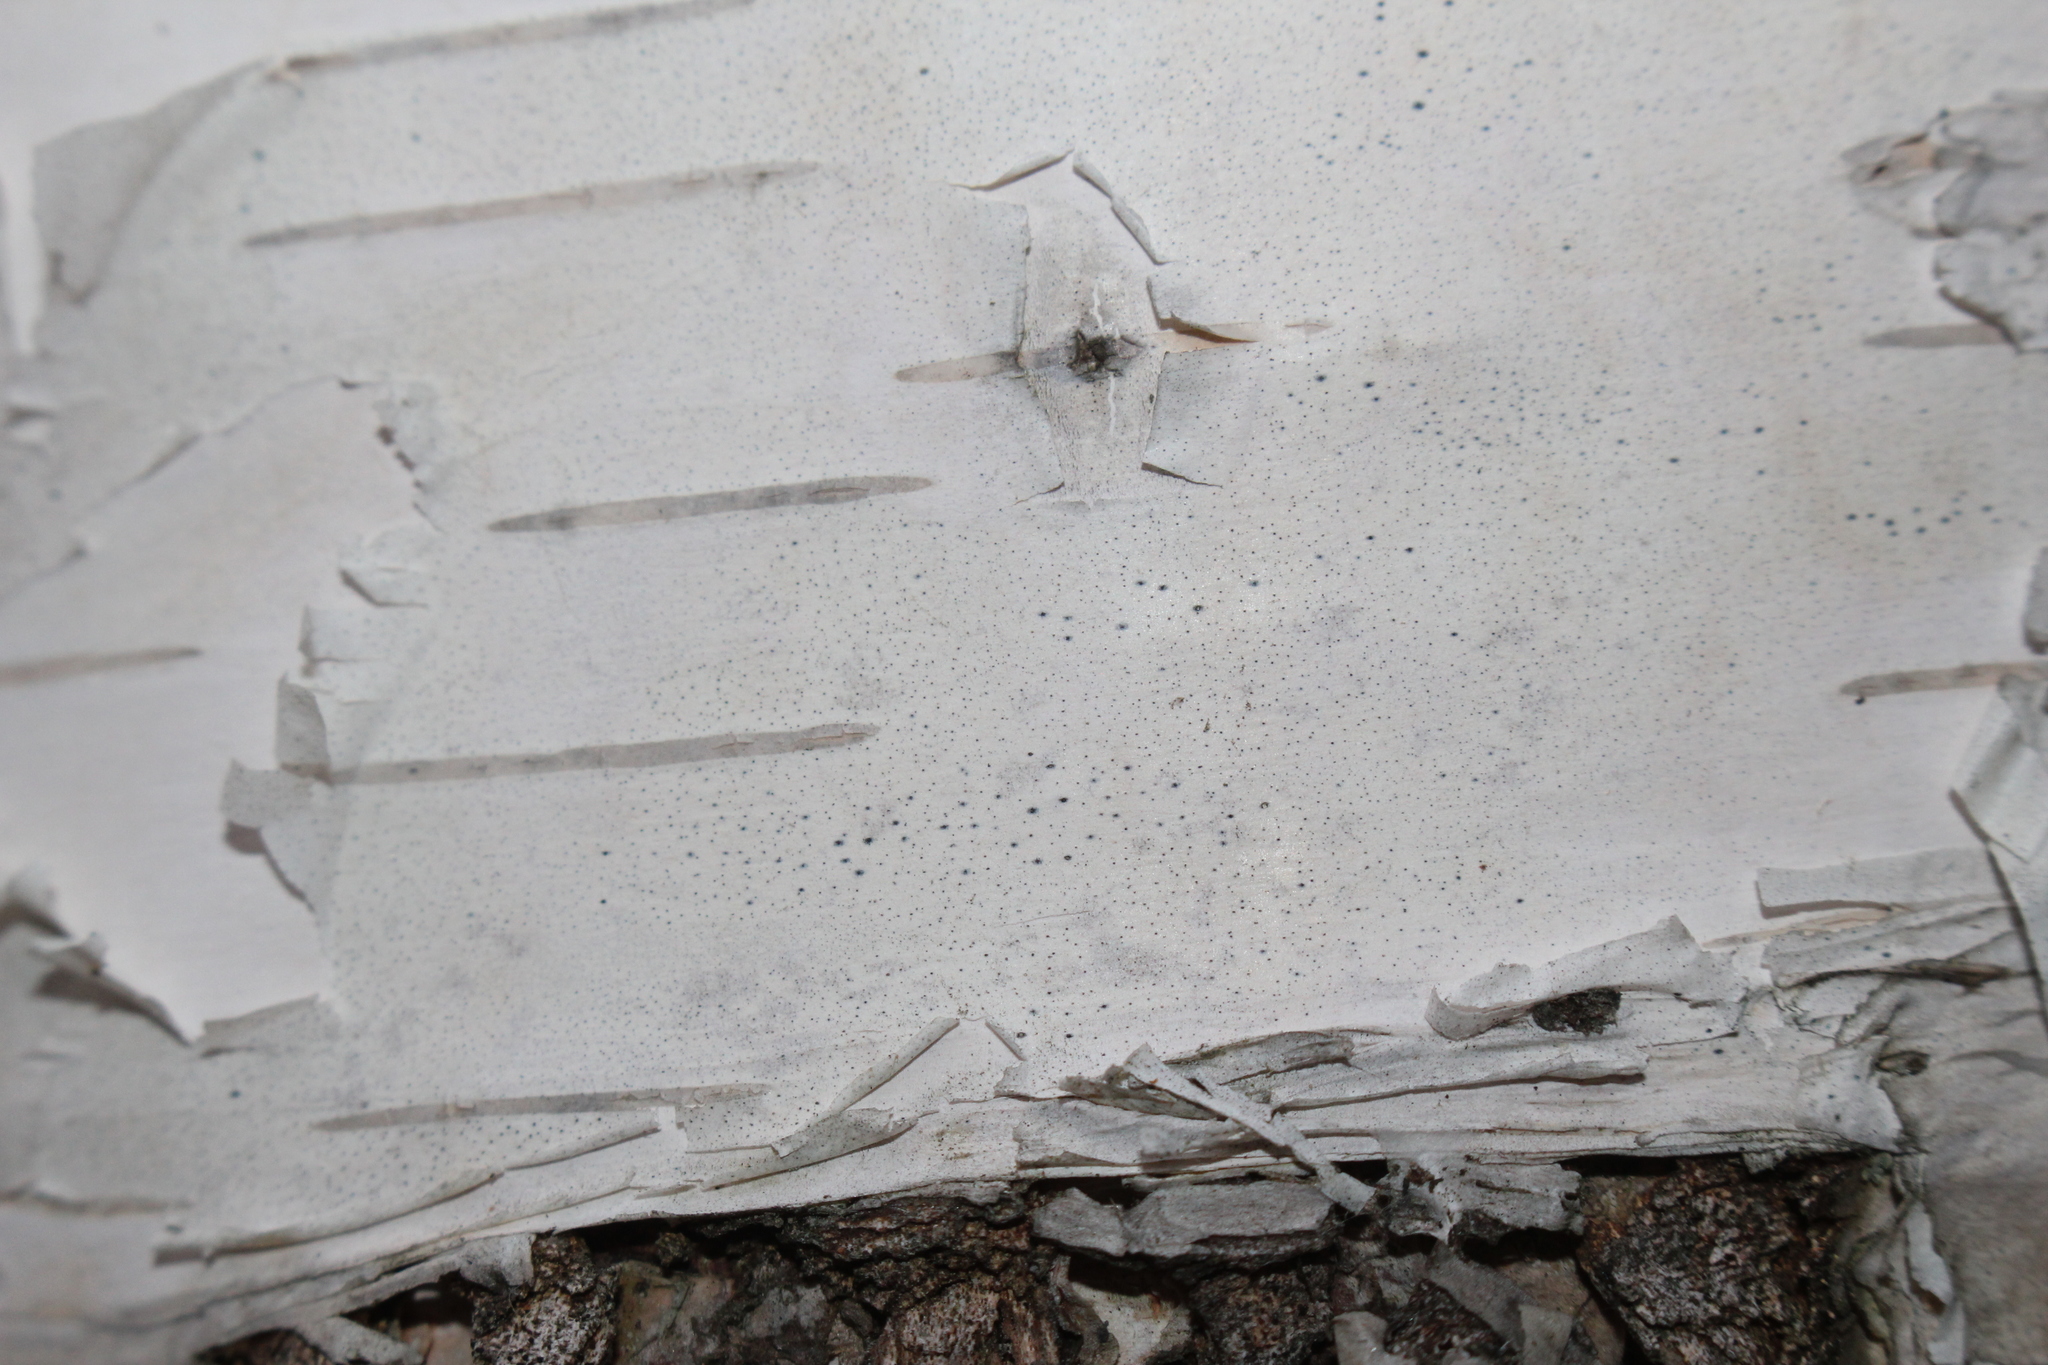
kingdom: Fungi
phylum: Ascomycota
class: Dothideomycetes
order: Pleosporales
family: Naetrocymbaceae
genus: Leptorhaphis
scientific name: Leptorhaphis epidermidis
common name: Birchbark dot lichen
